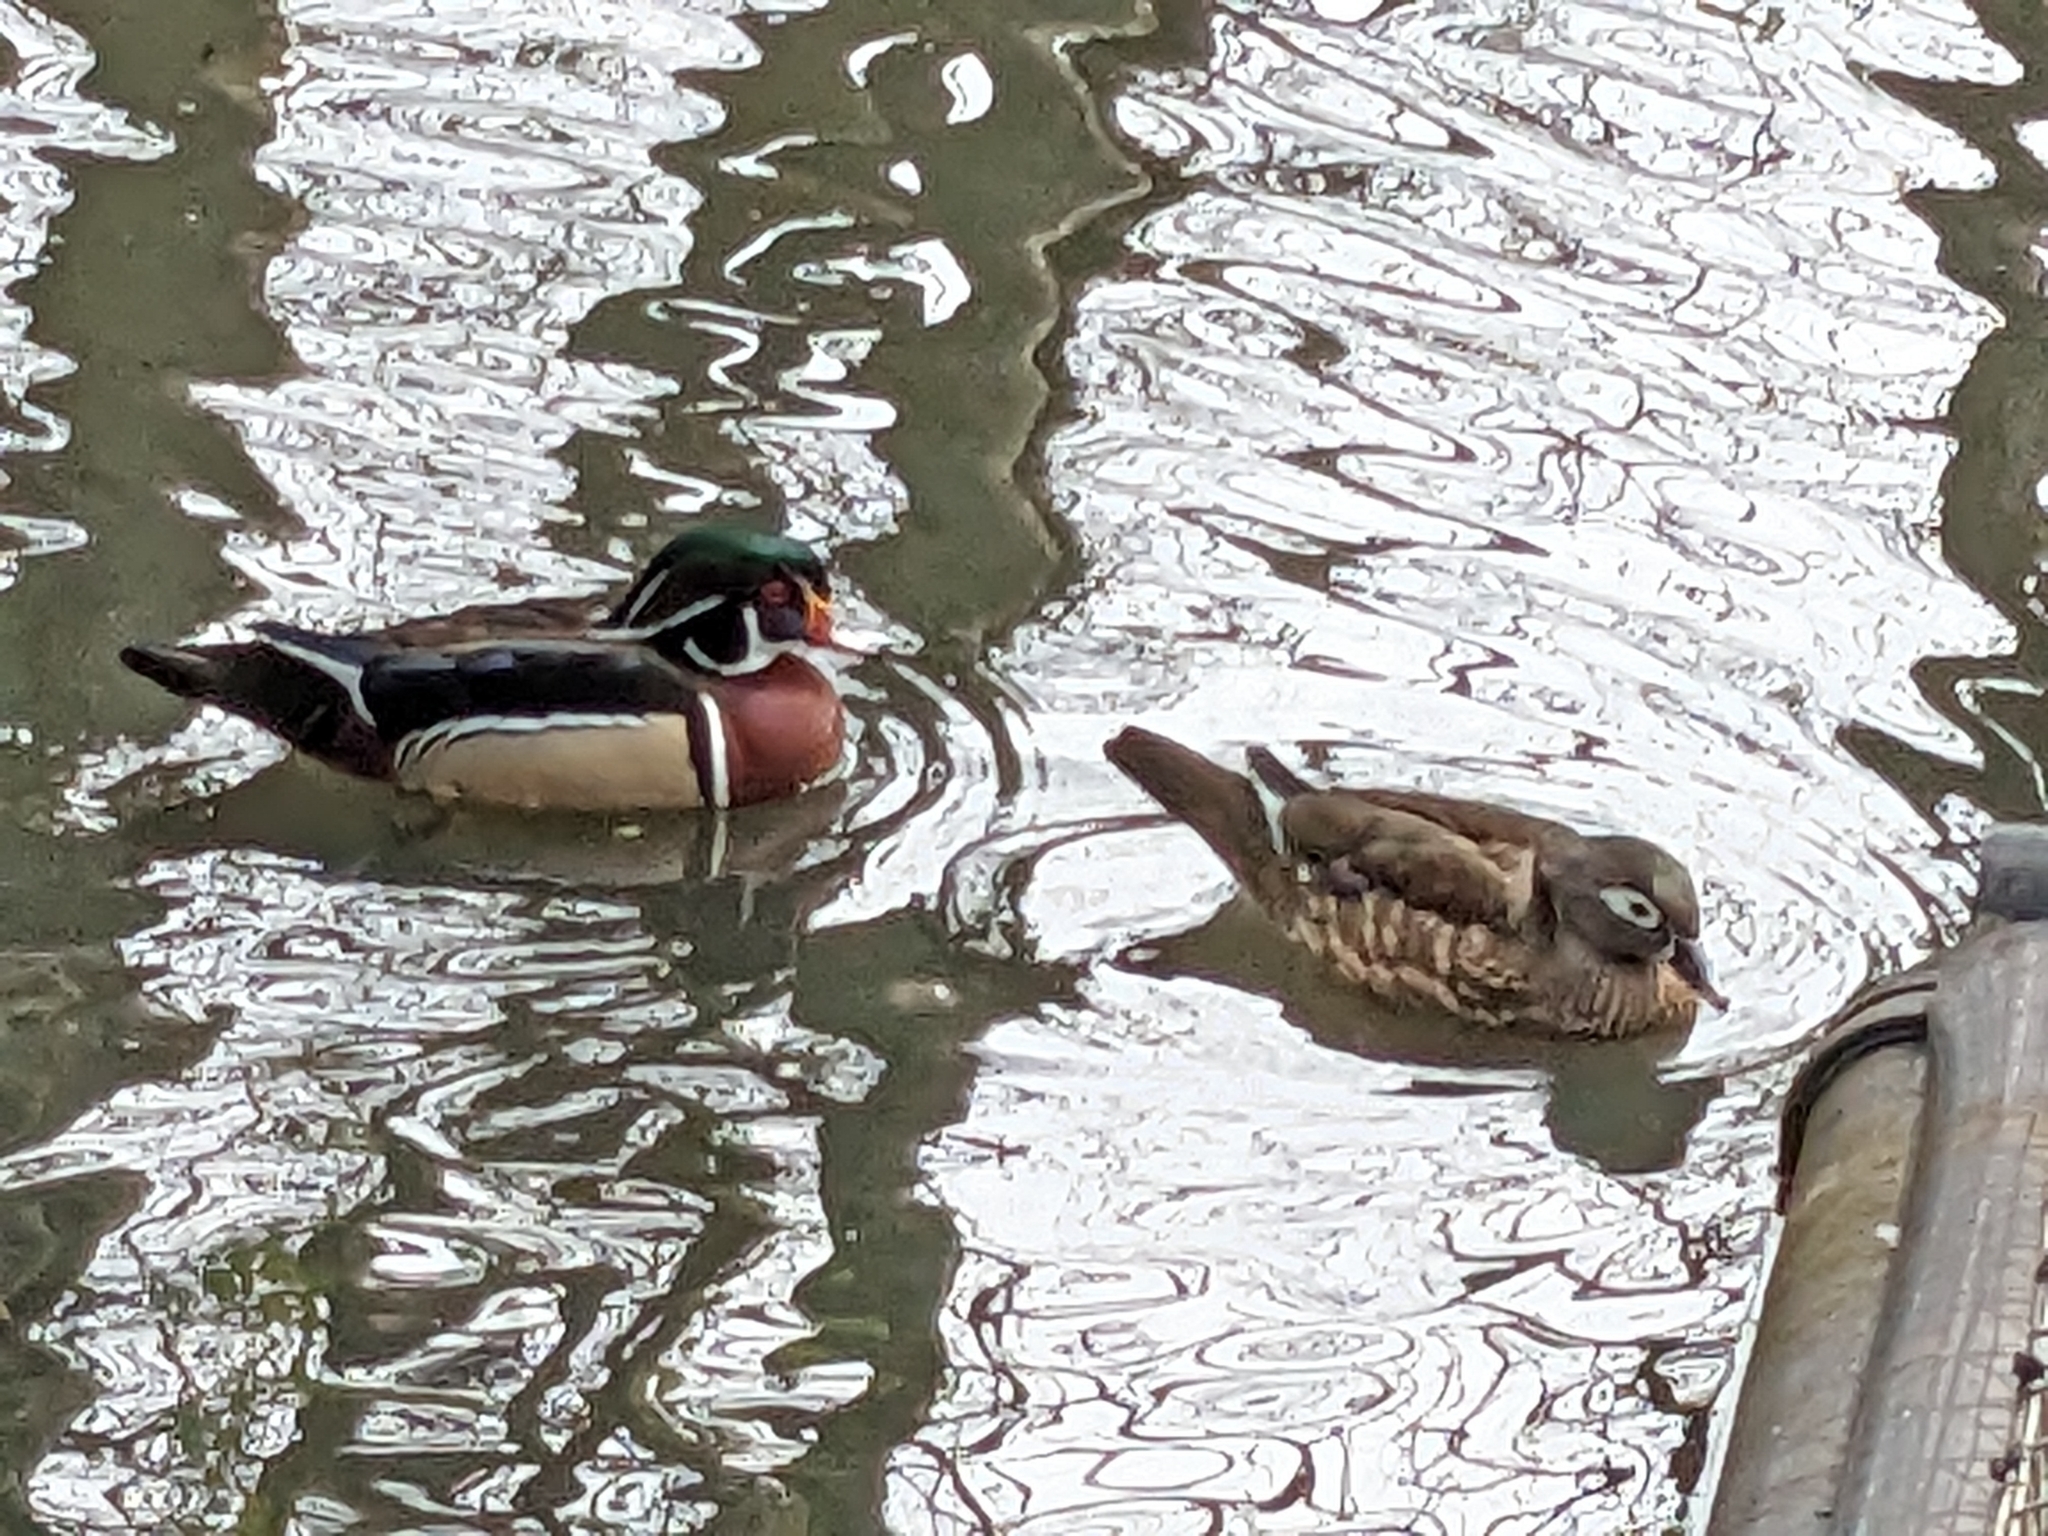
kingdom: Animalia
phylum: Chordata
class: Aves
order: Anseriformes
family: Anatidae
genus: Aix
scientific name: Aix sponsa
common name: Wood duck
